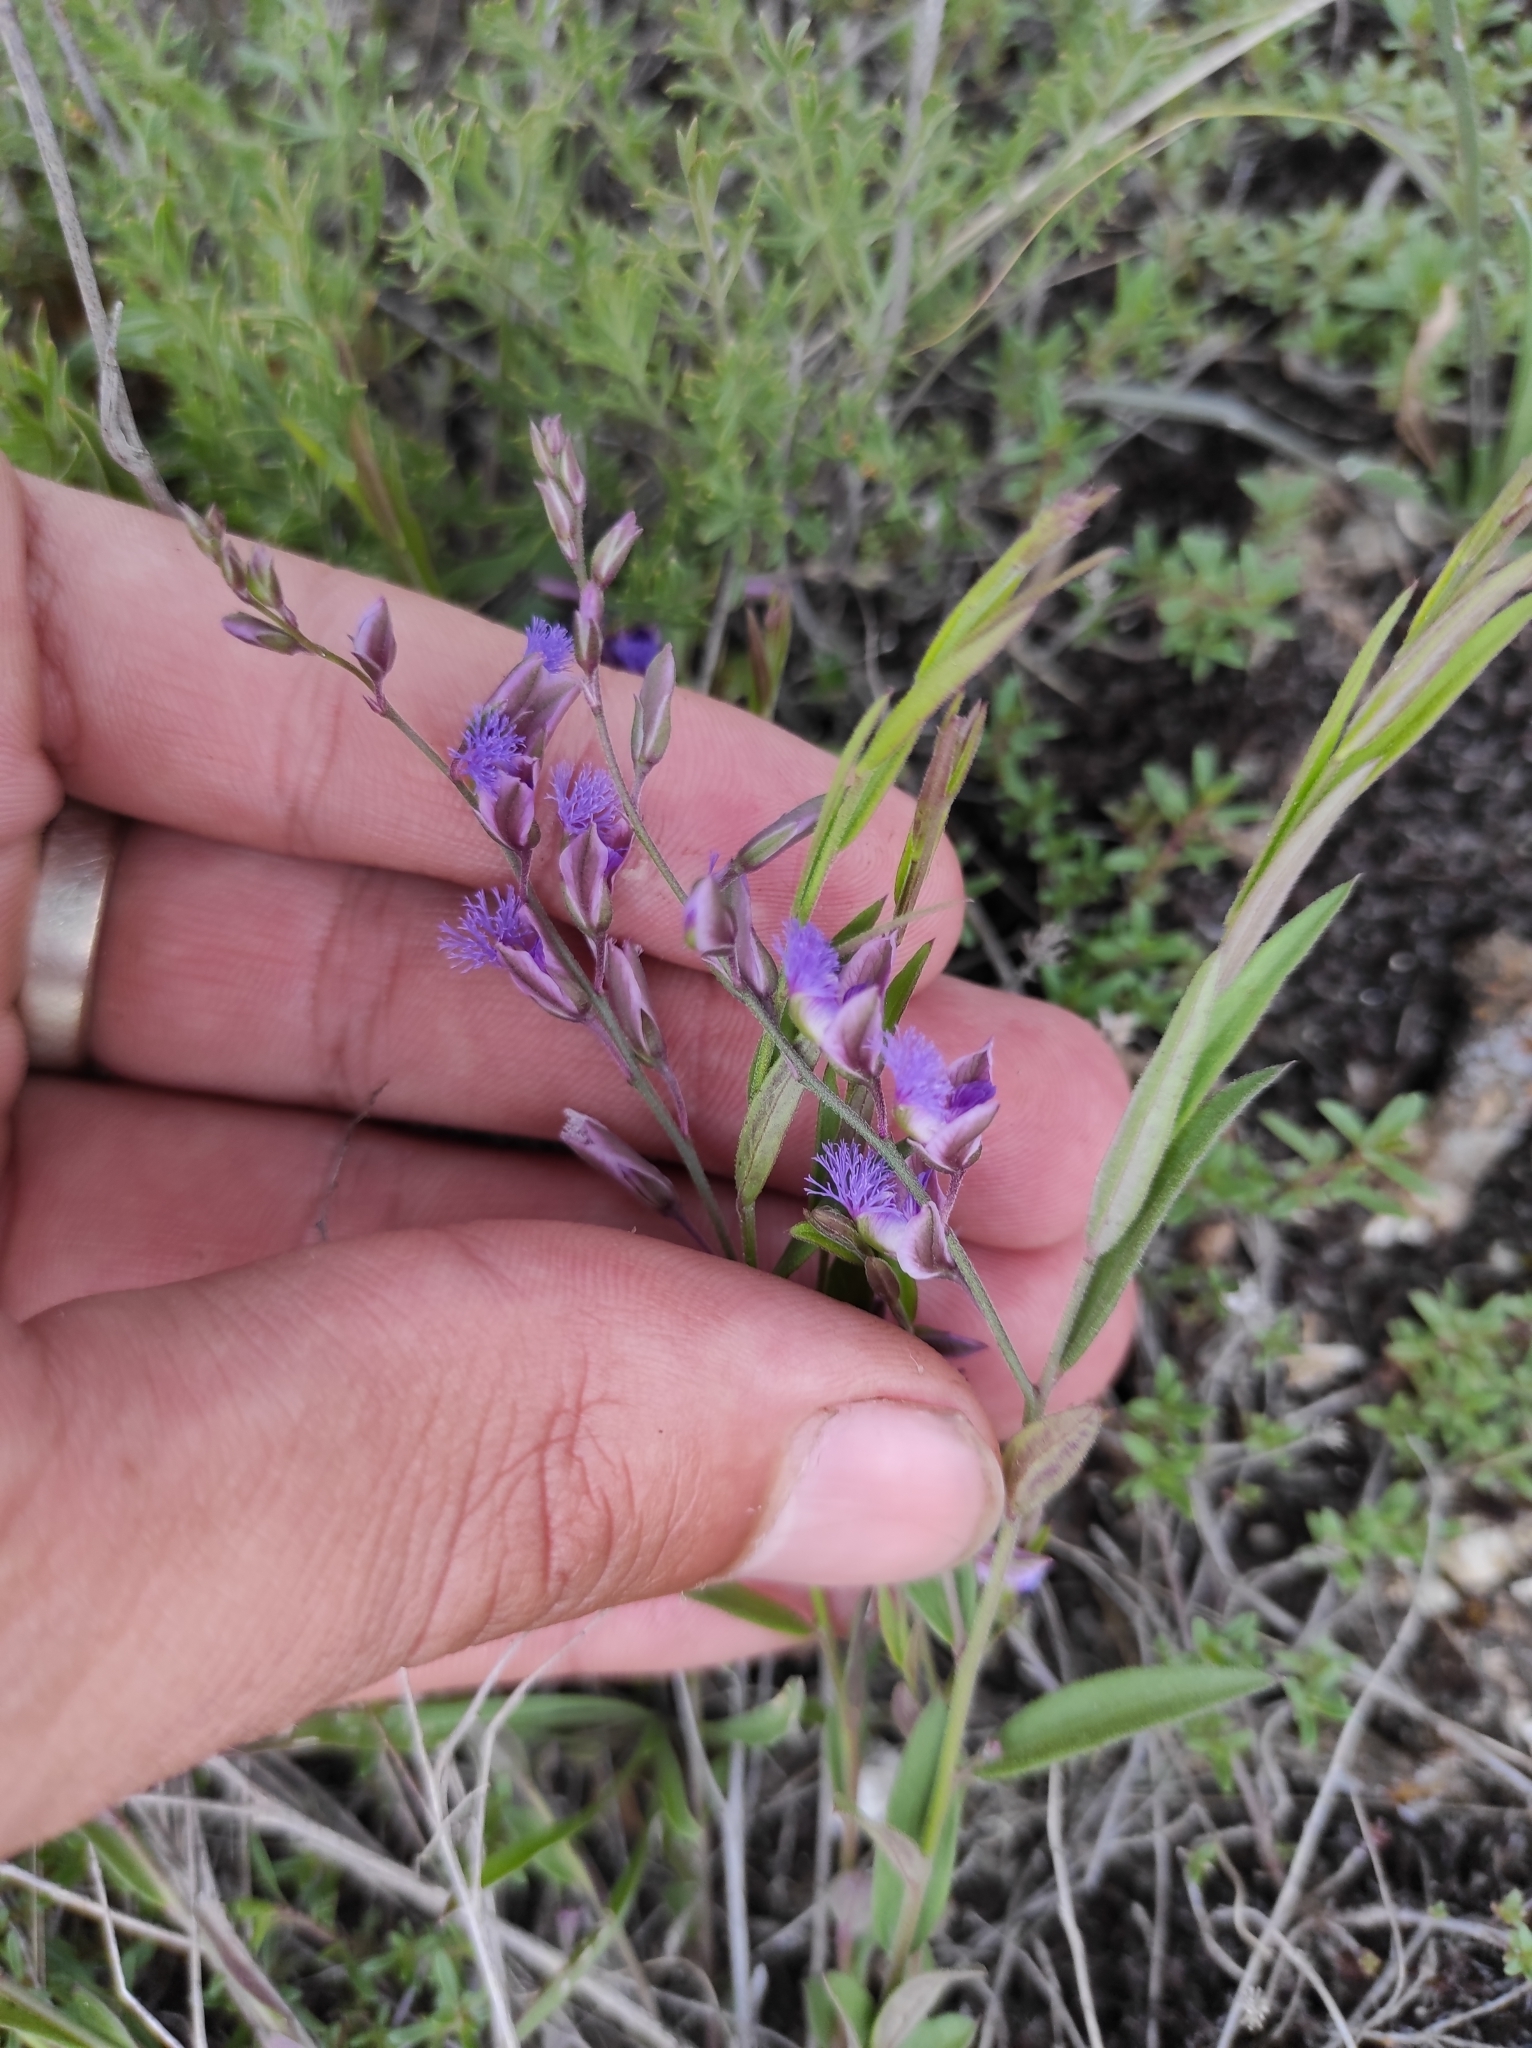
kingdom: Plantae
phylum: Tracheophyta
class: Magnoliopsida
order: Fabales
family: Polygalaceae
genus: Polygala
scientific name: Polygala sibirica
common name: Siberian polygala
